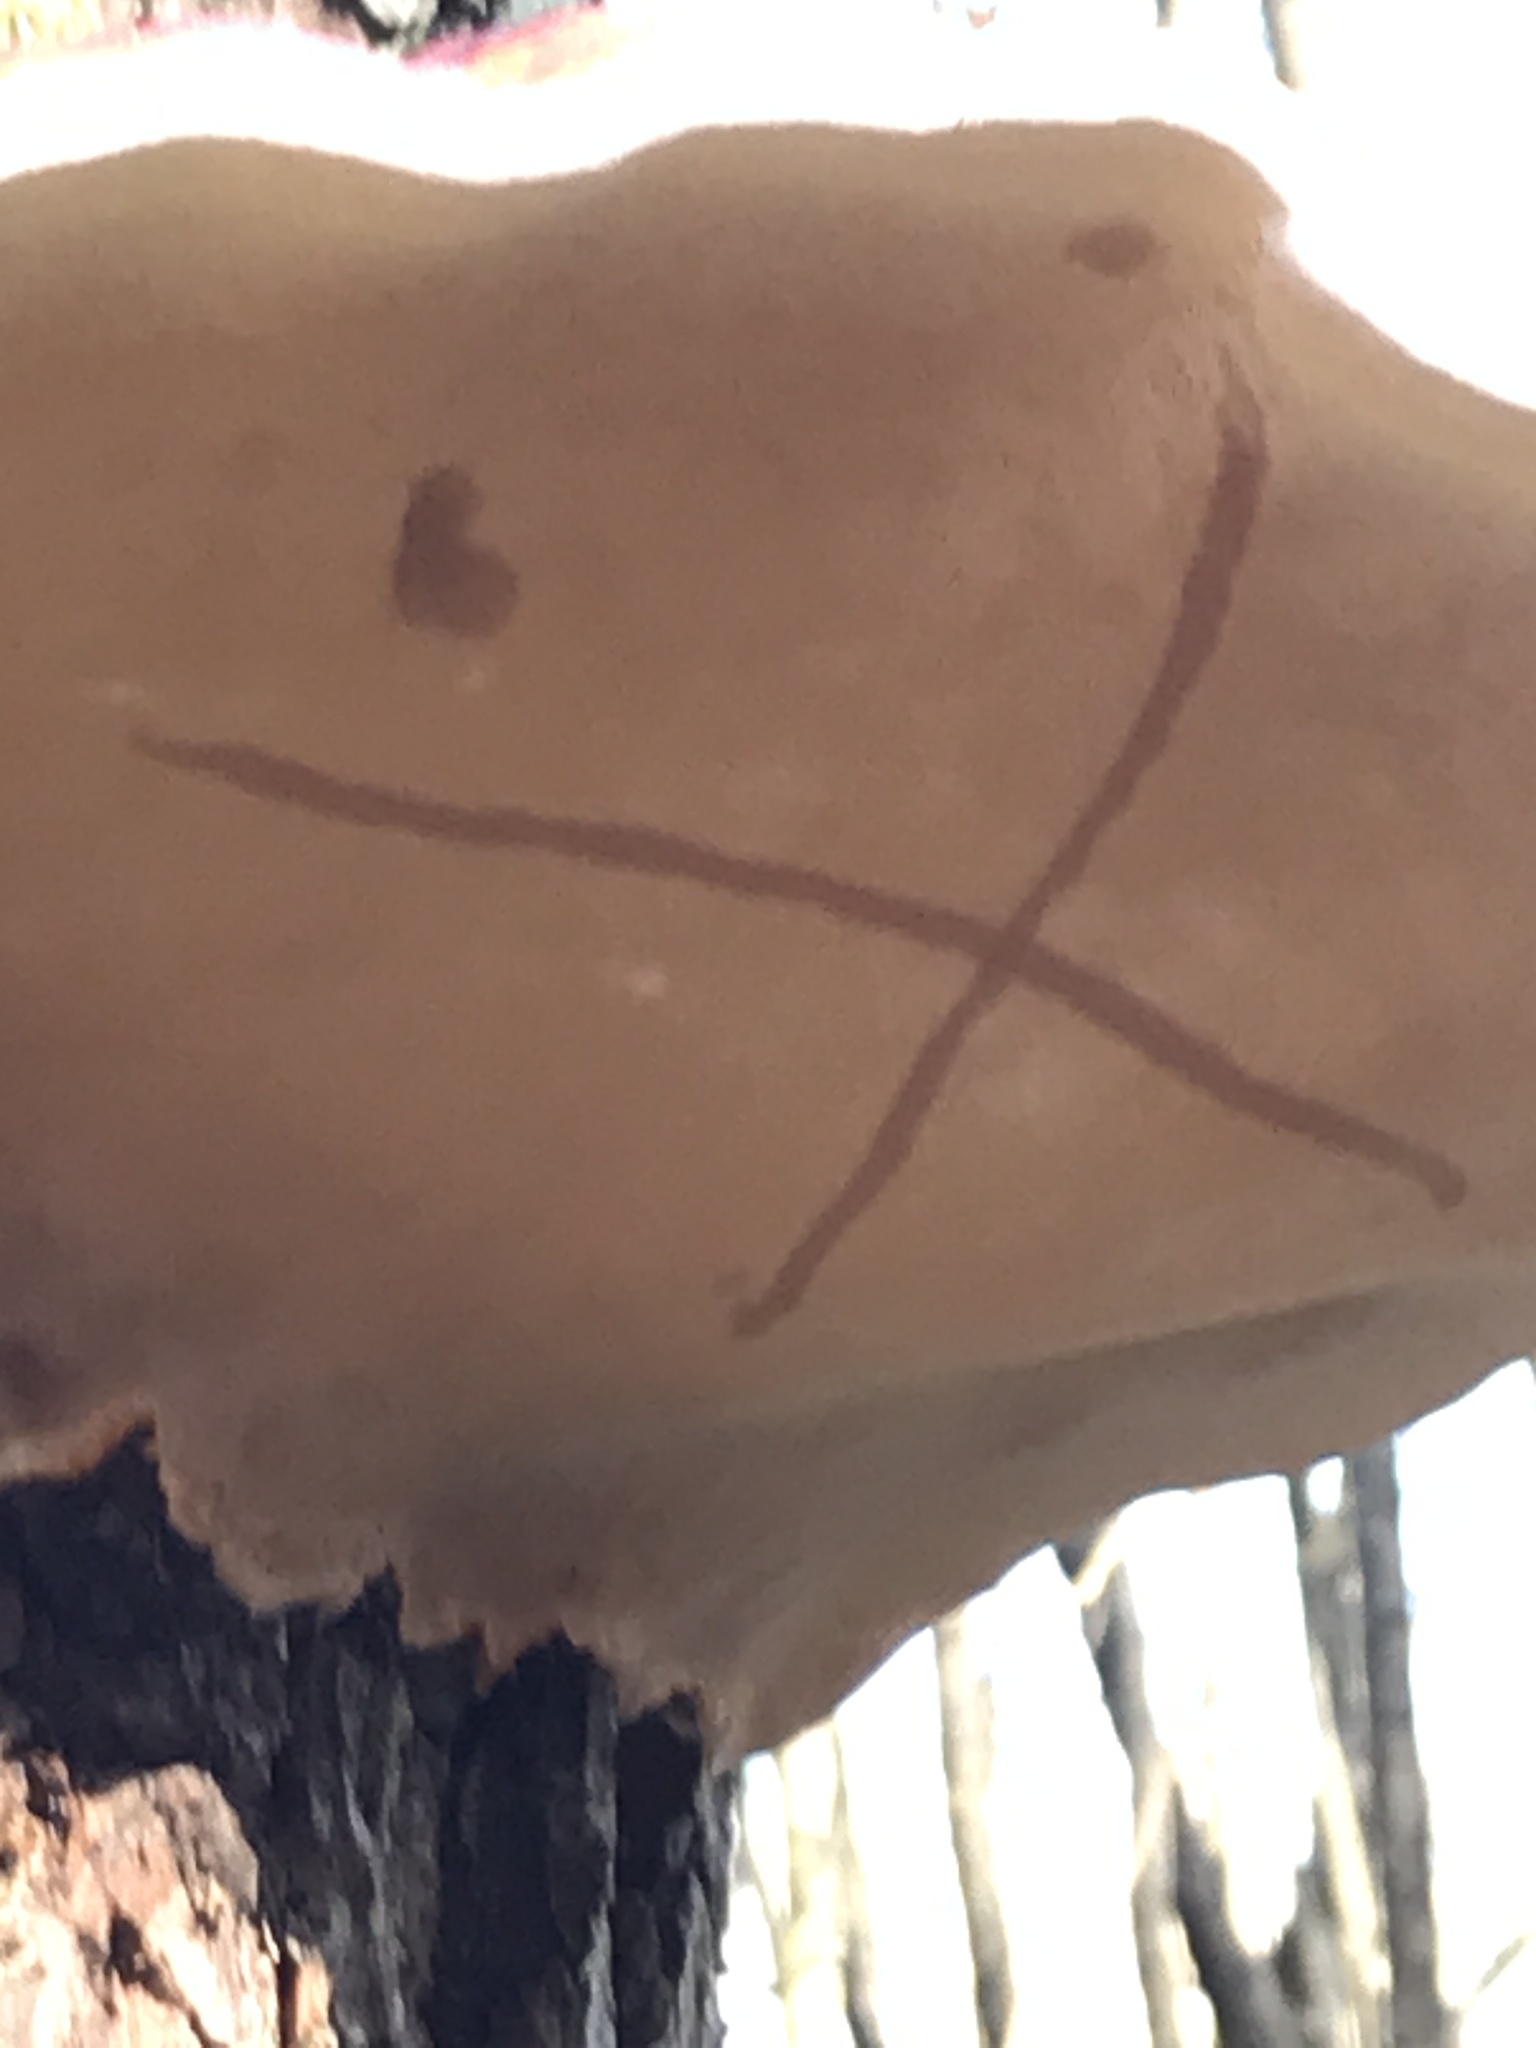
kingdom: Fungi
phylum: Basidiomycota
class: Agaricomycetes
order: Polyporales
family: Fomitopsidaceae
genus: Fomitopsis
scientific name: Fomitopsis pinicola
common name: Red-belted bracket
